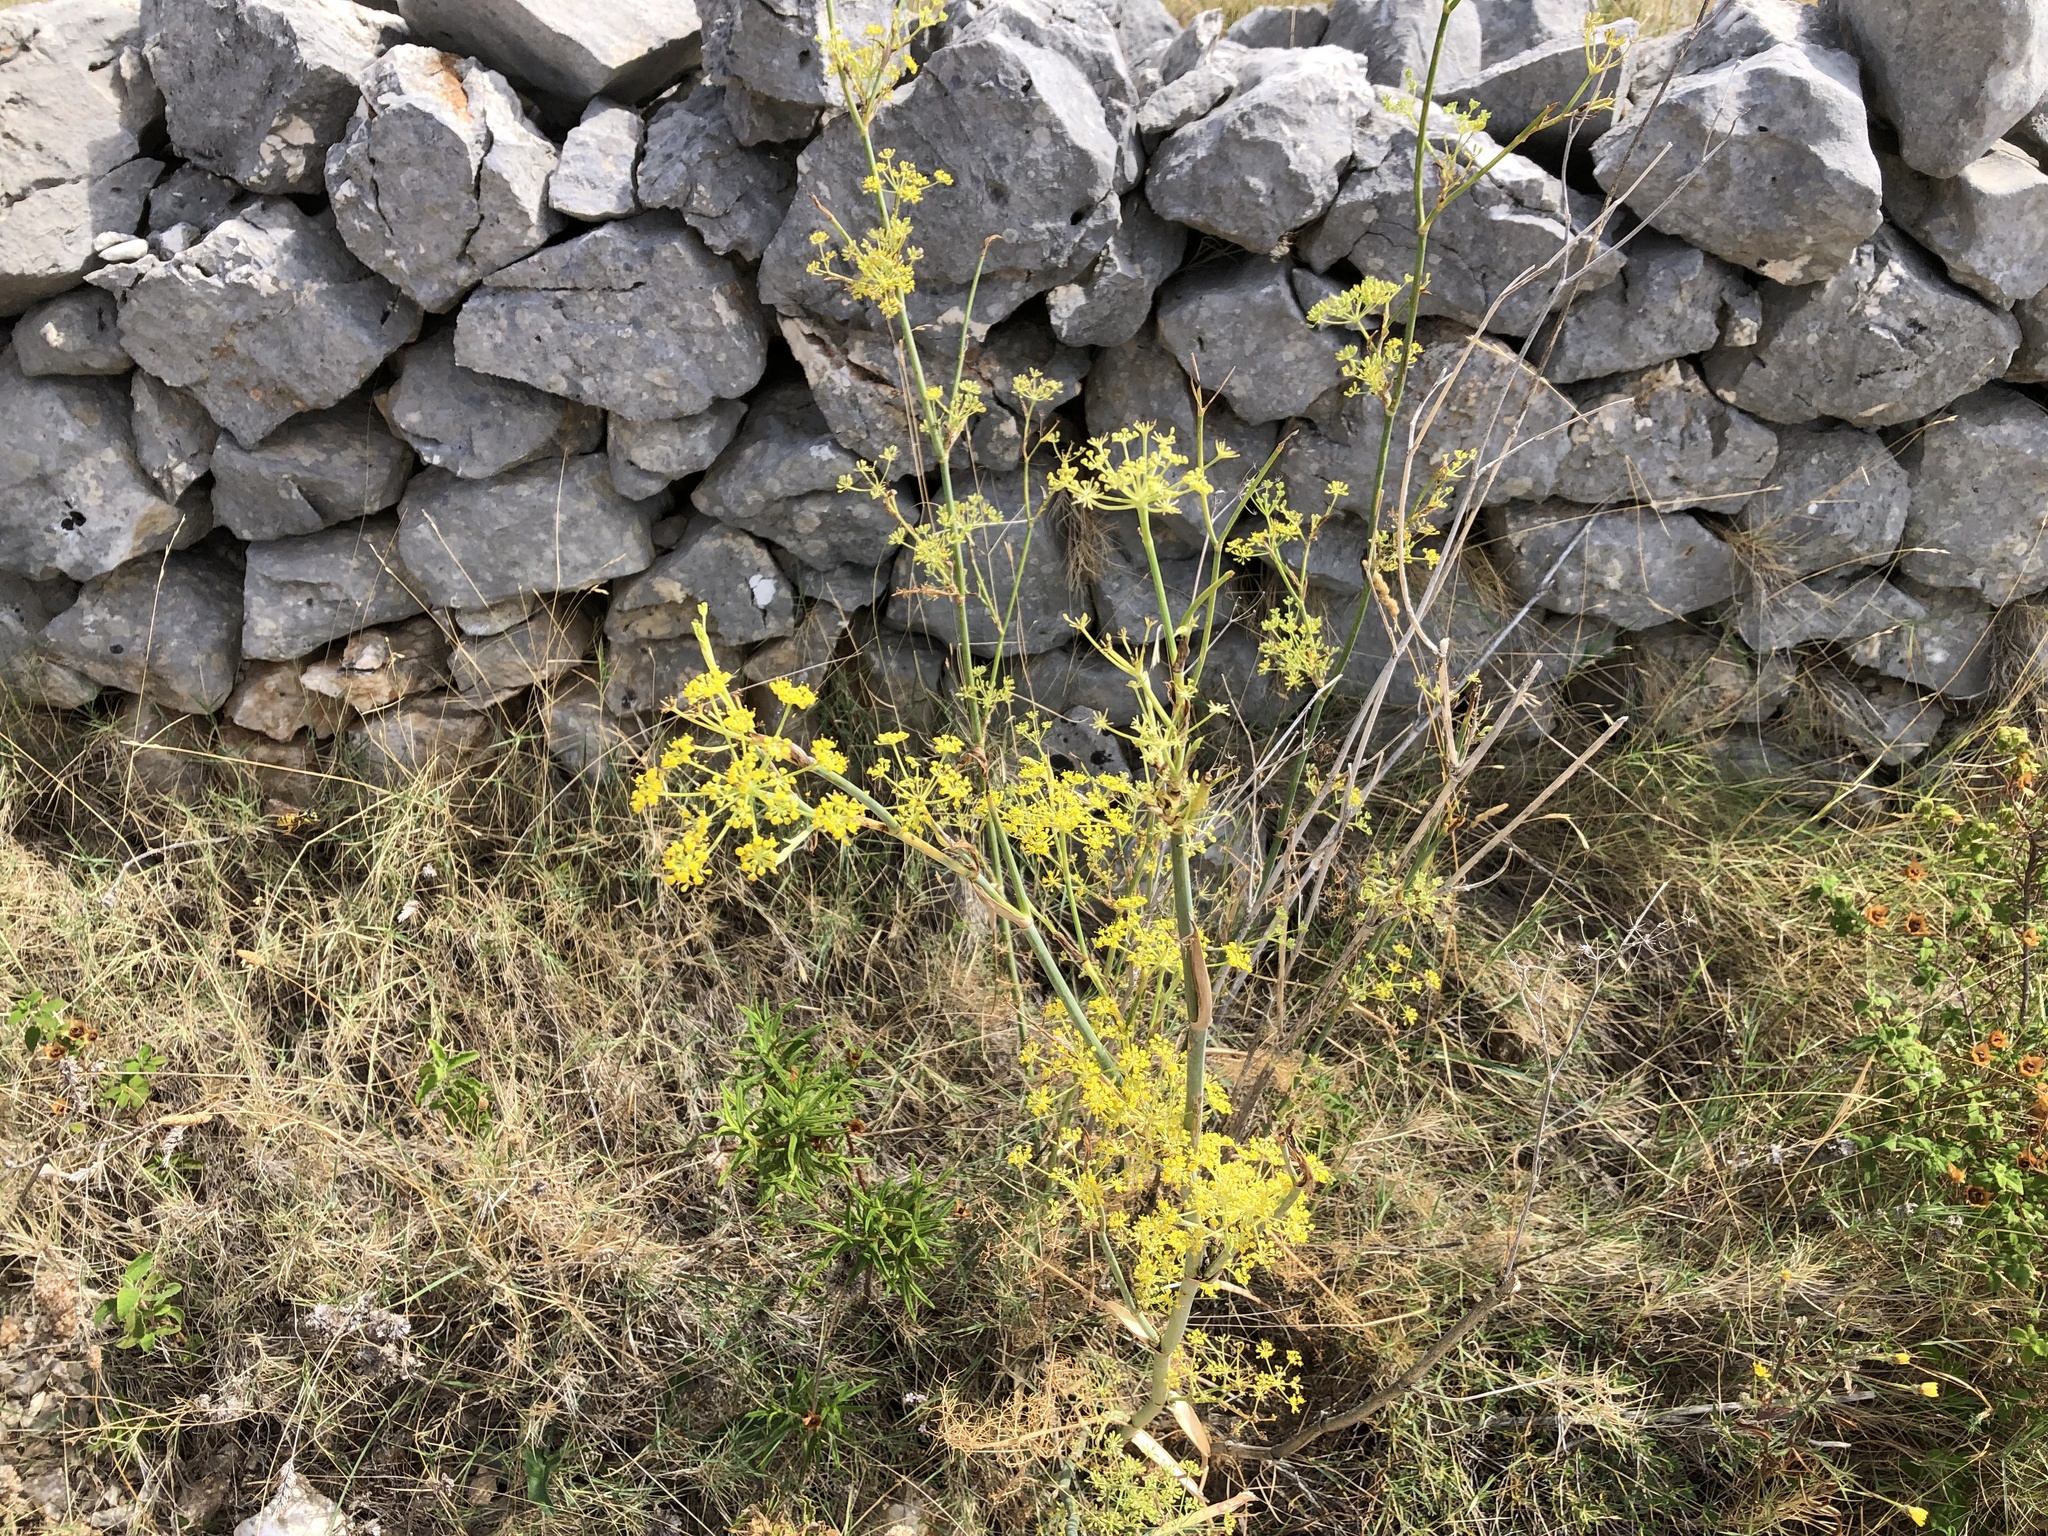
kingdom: Plantae
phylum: Tracheophyta
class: Magnoliopsida
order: Apiales
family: Apiaceae
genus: Foeniculum
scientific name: Foeniculum vulgare
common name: Fennel
